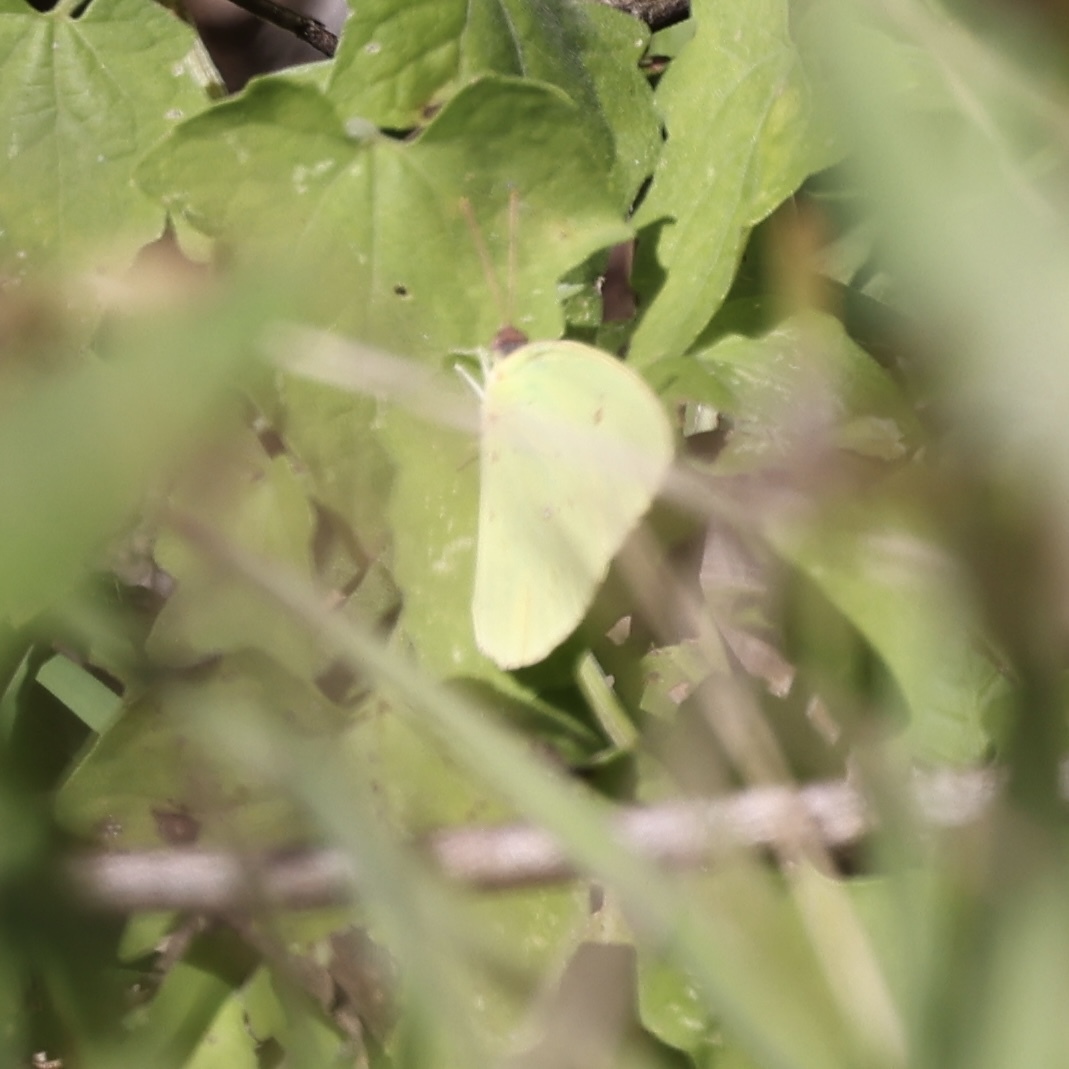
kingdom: Animalia
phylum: Arthropoda
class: Insecta
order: Lepidoptera
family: Pieridae
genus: Phoebis
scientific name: Phoebis sennae
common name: Cloudless sulphur
